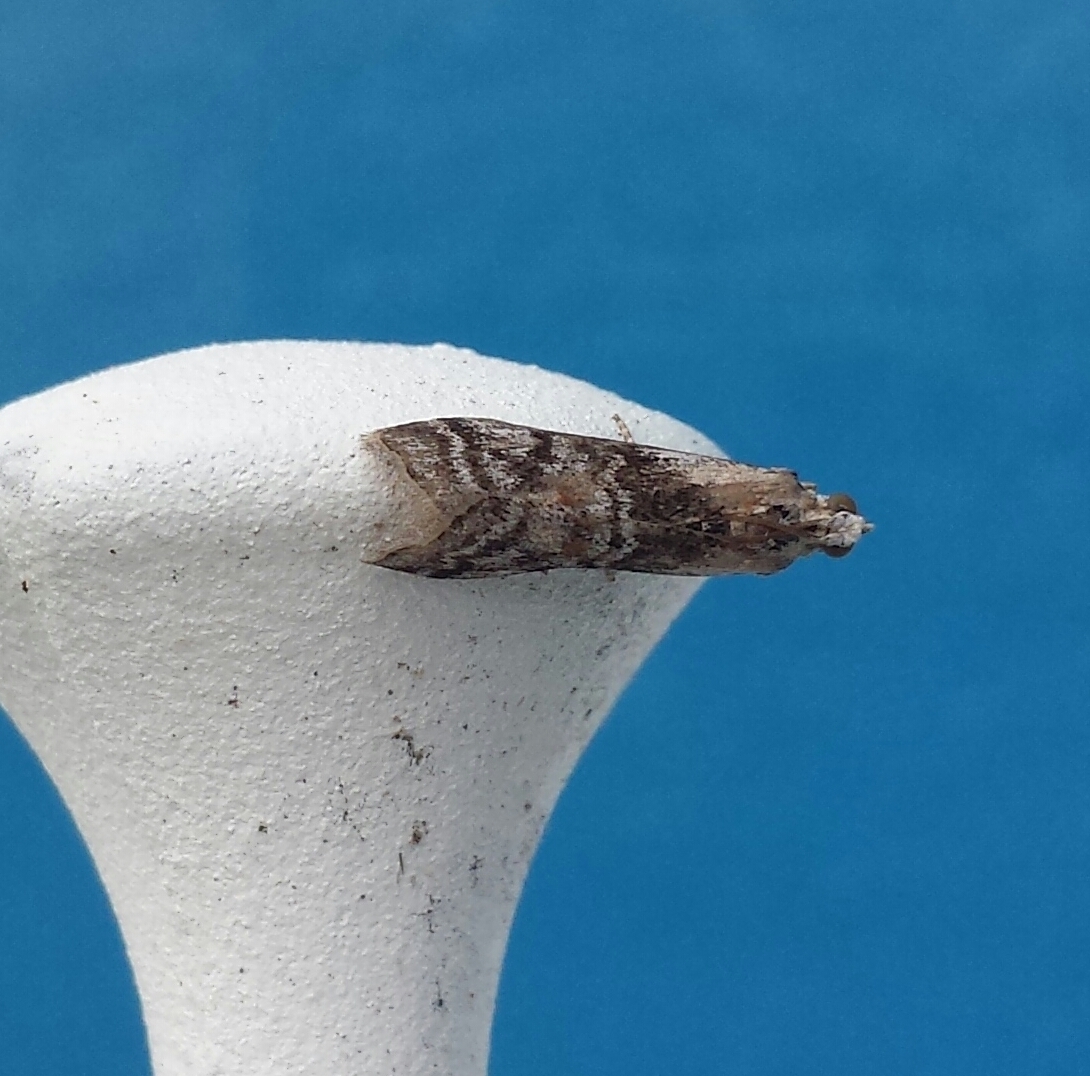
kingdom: Animalia
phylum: Arthropoda
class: Insecta
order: Lepidoptera
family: Pyralidae
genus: Glyptocera
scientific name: Glyptocera consobrinella
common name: Viburnum glyptocera moth
